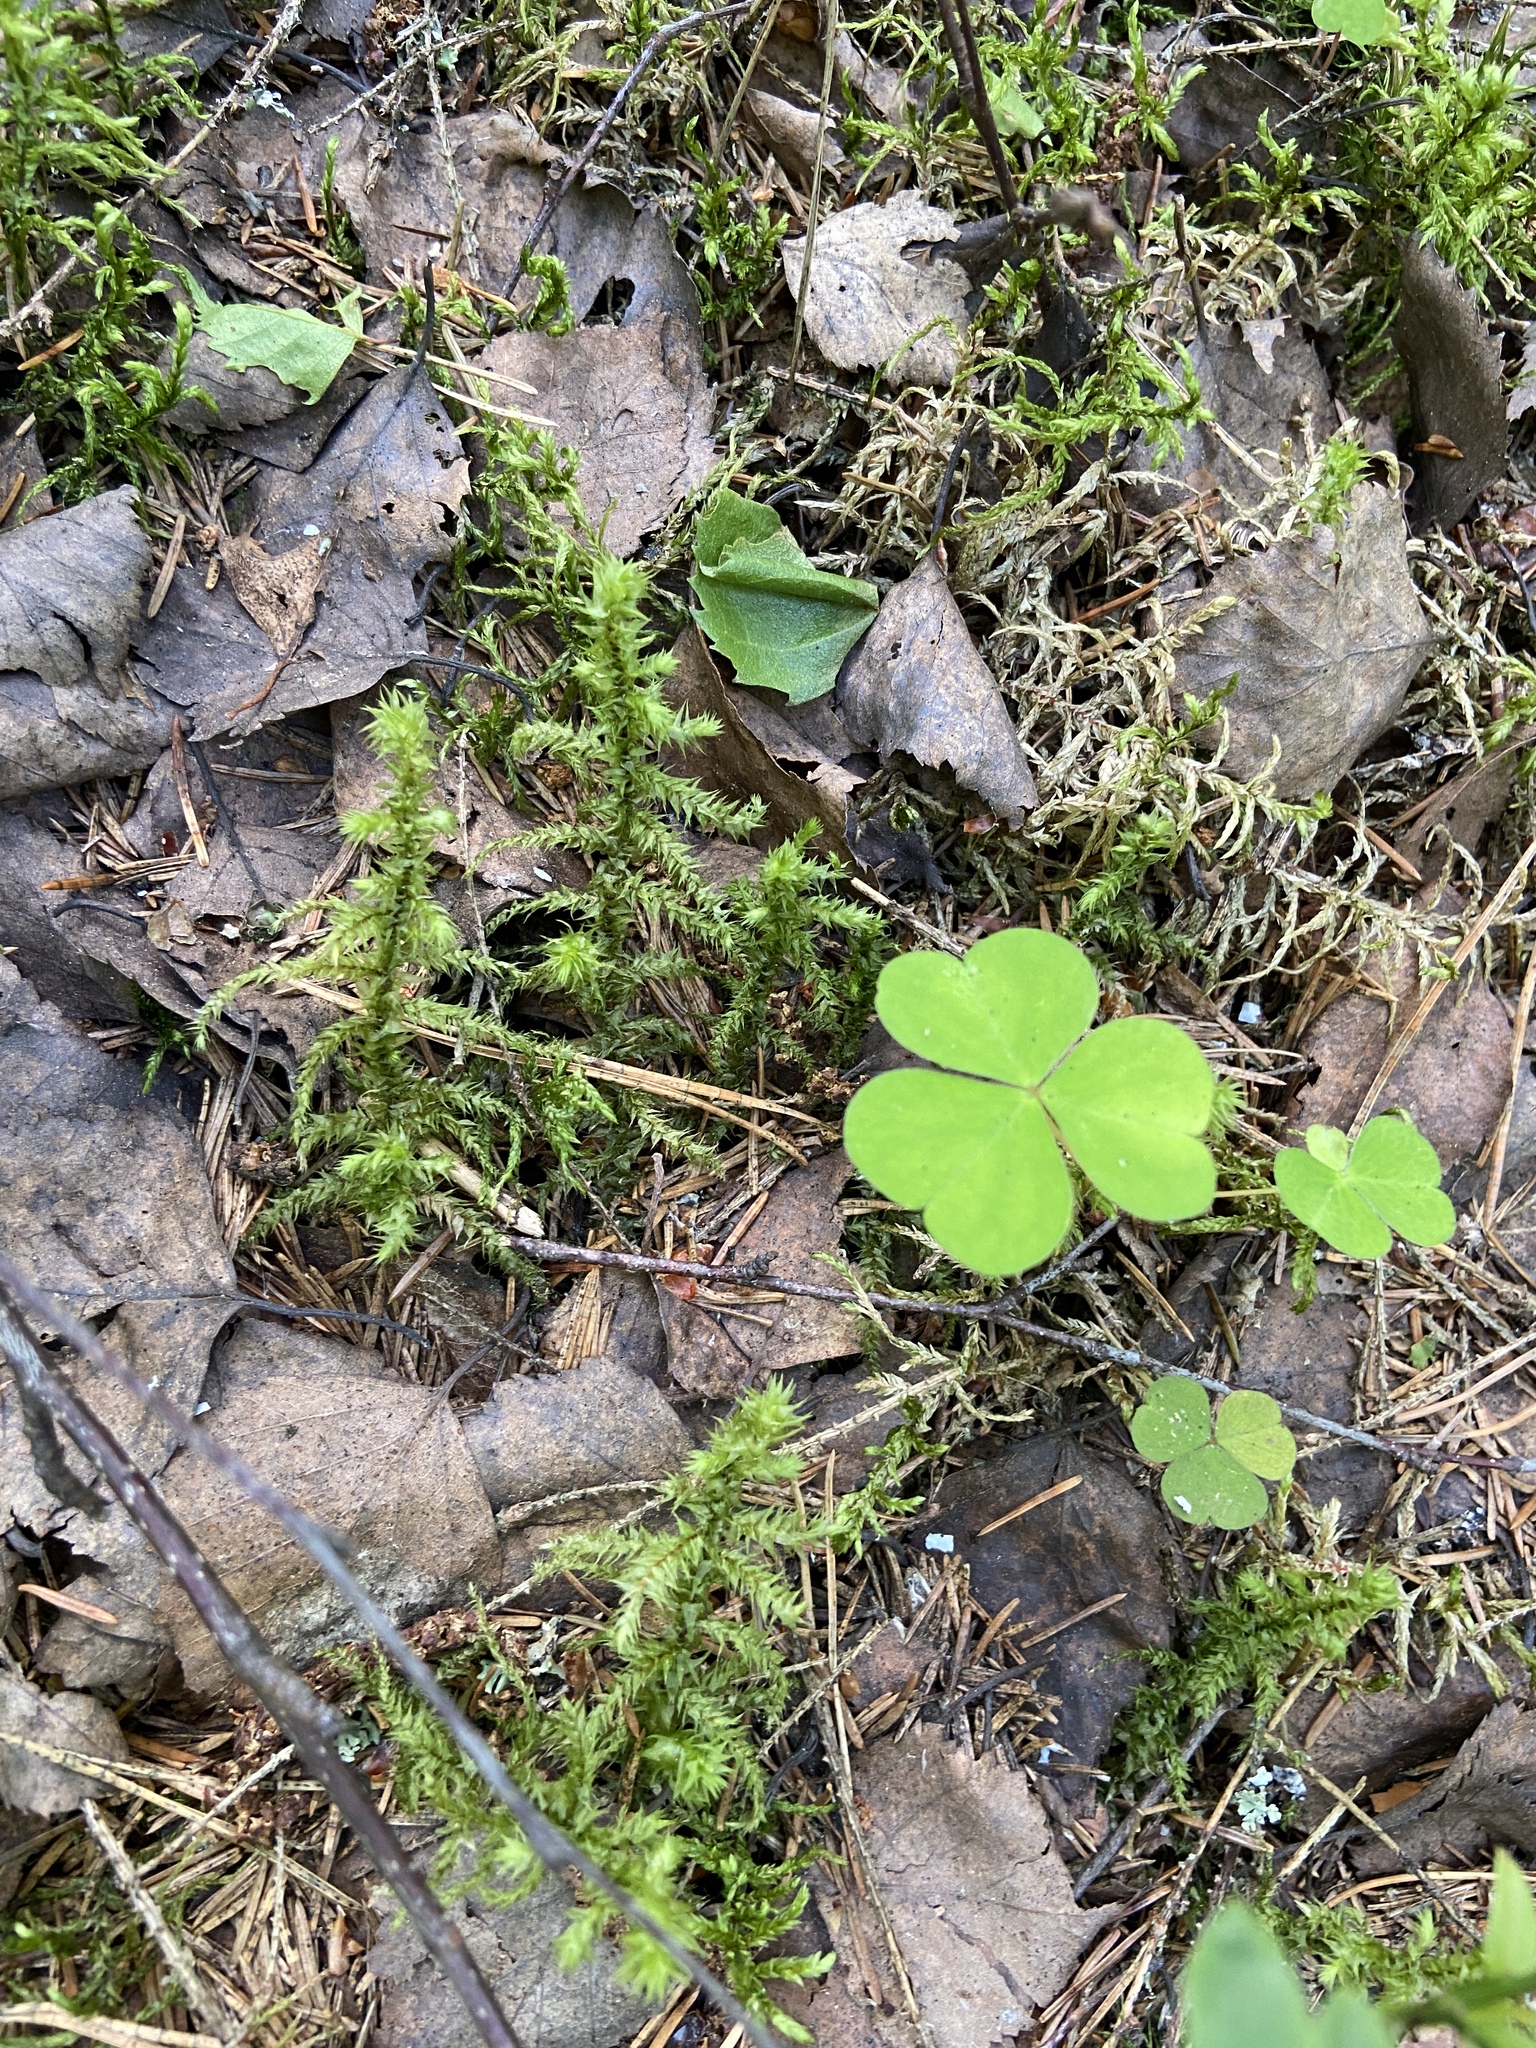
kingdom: Plantae
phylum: Tracheophyta
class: Magnoliopsida
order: Oxalidales
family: Oxalidaceae
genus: Oxalis
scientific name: Oxalis acetosella
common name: Wood-sorrel
